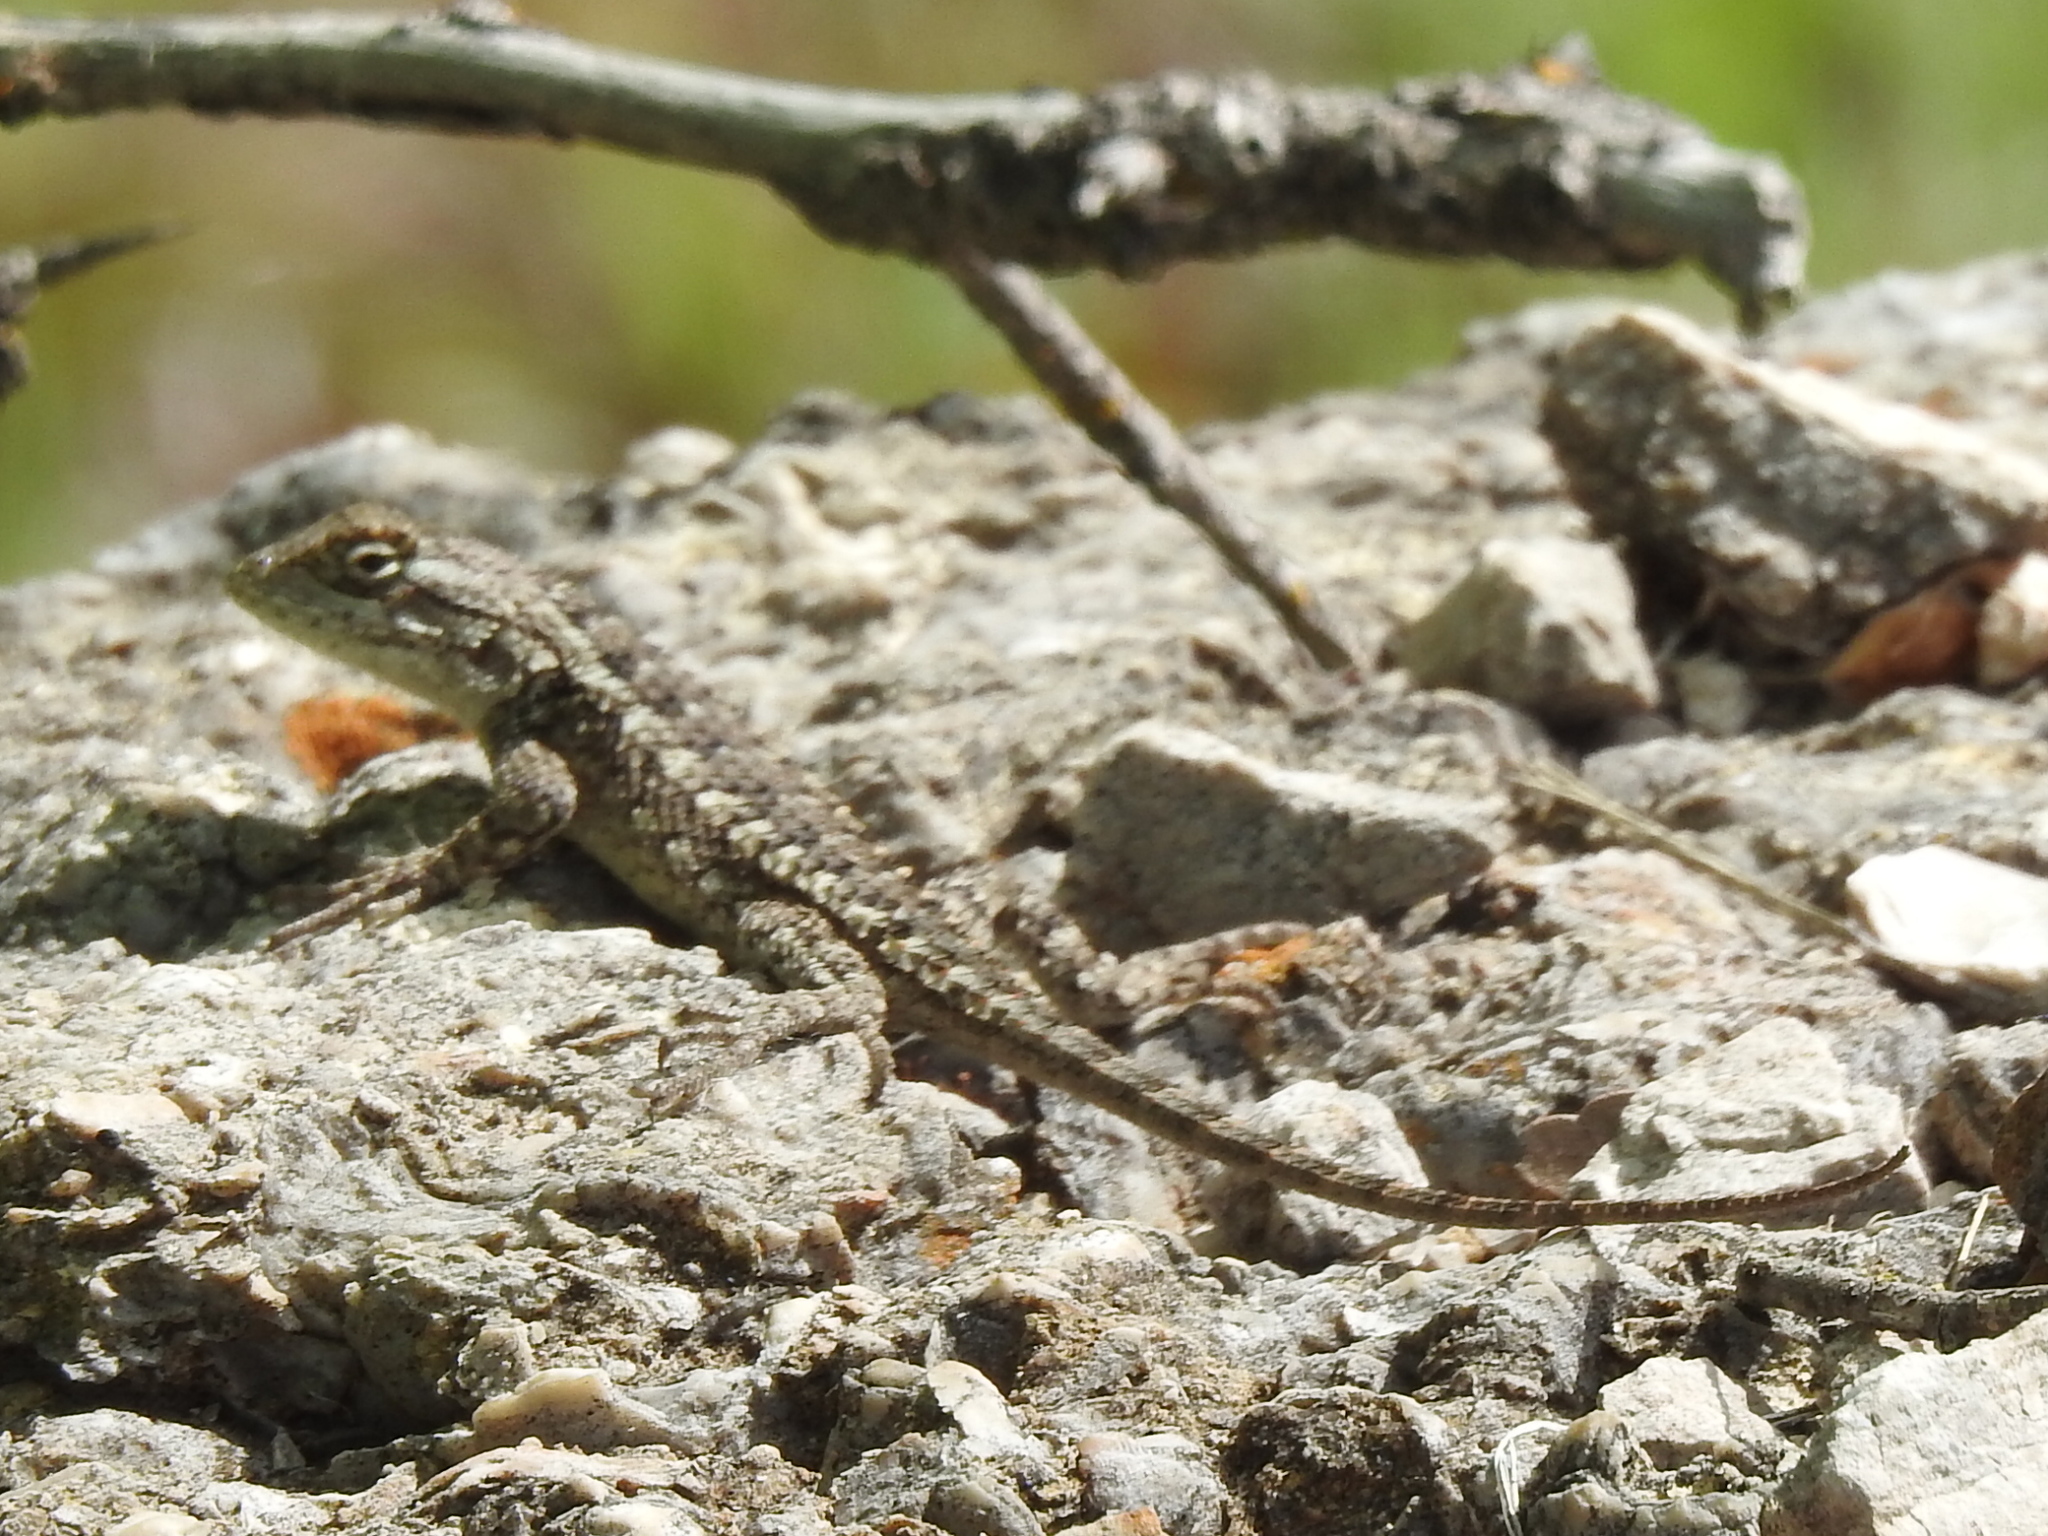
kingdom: Animalia
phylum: Chordata
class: Squamata
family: Phrynosomatidae
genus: Sceloporus
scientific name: Sceloporus olivaceus
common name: Texas spiny lizard
